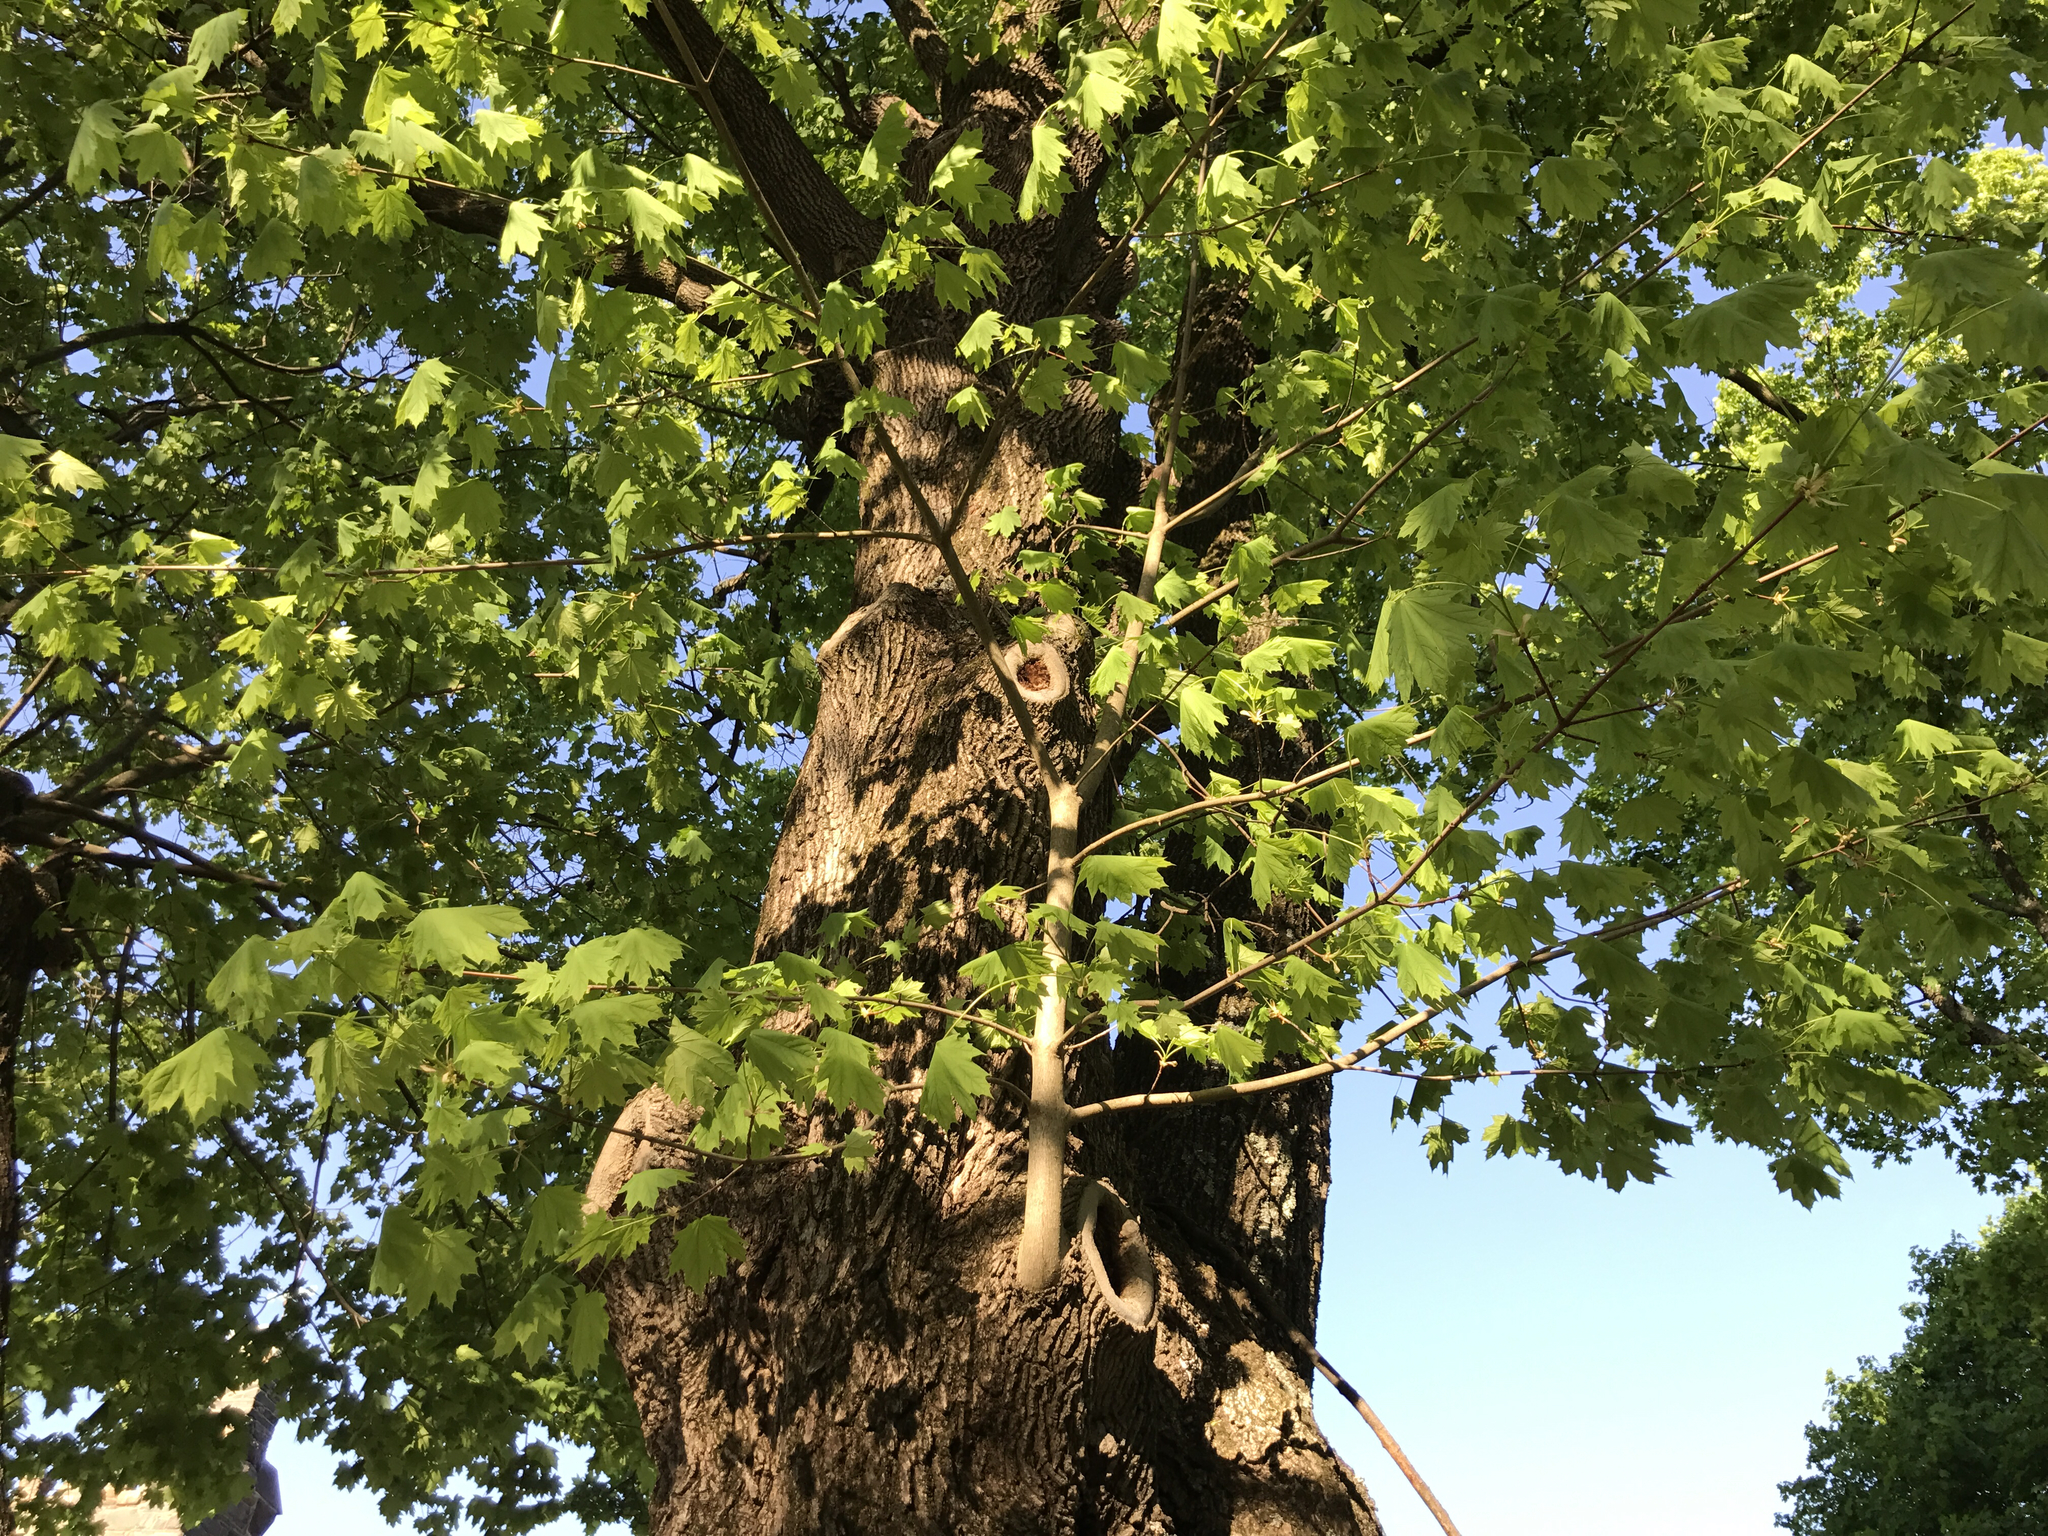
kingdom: Plantae
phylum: Tracheophyta
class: Magnoliopsida
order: Sapindales
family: Sapindaceae
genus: Acer
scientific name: Acer platanoides
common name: Norway maple
